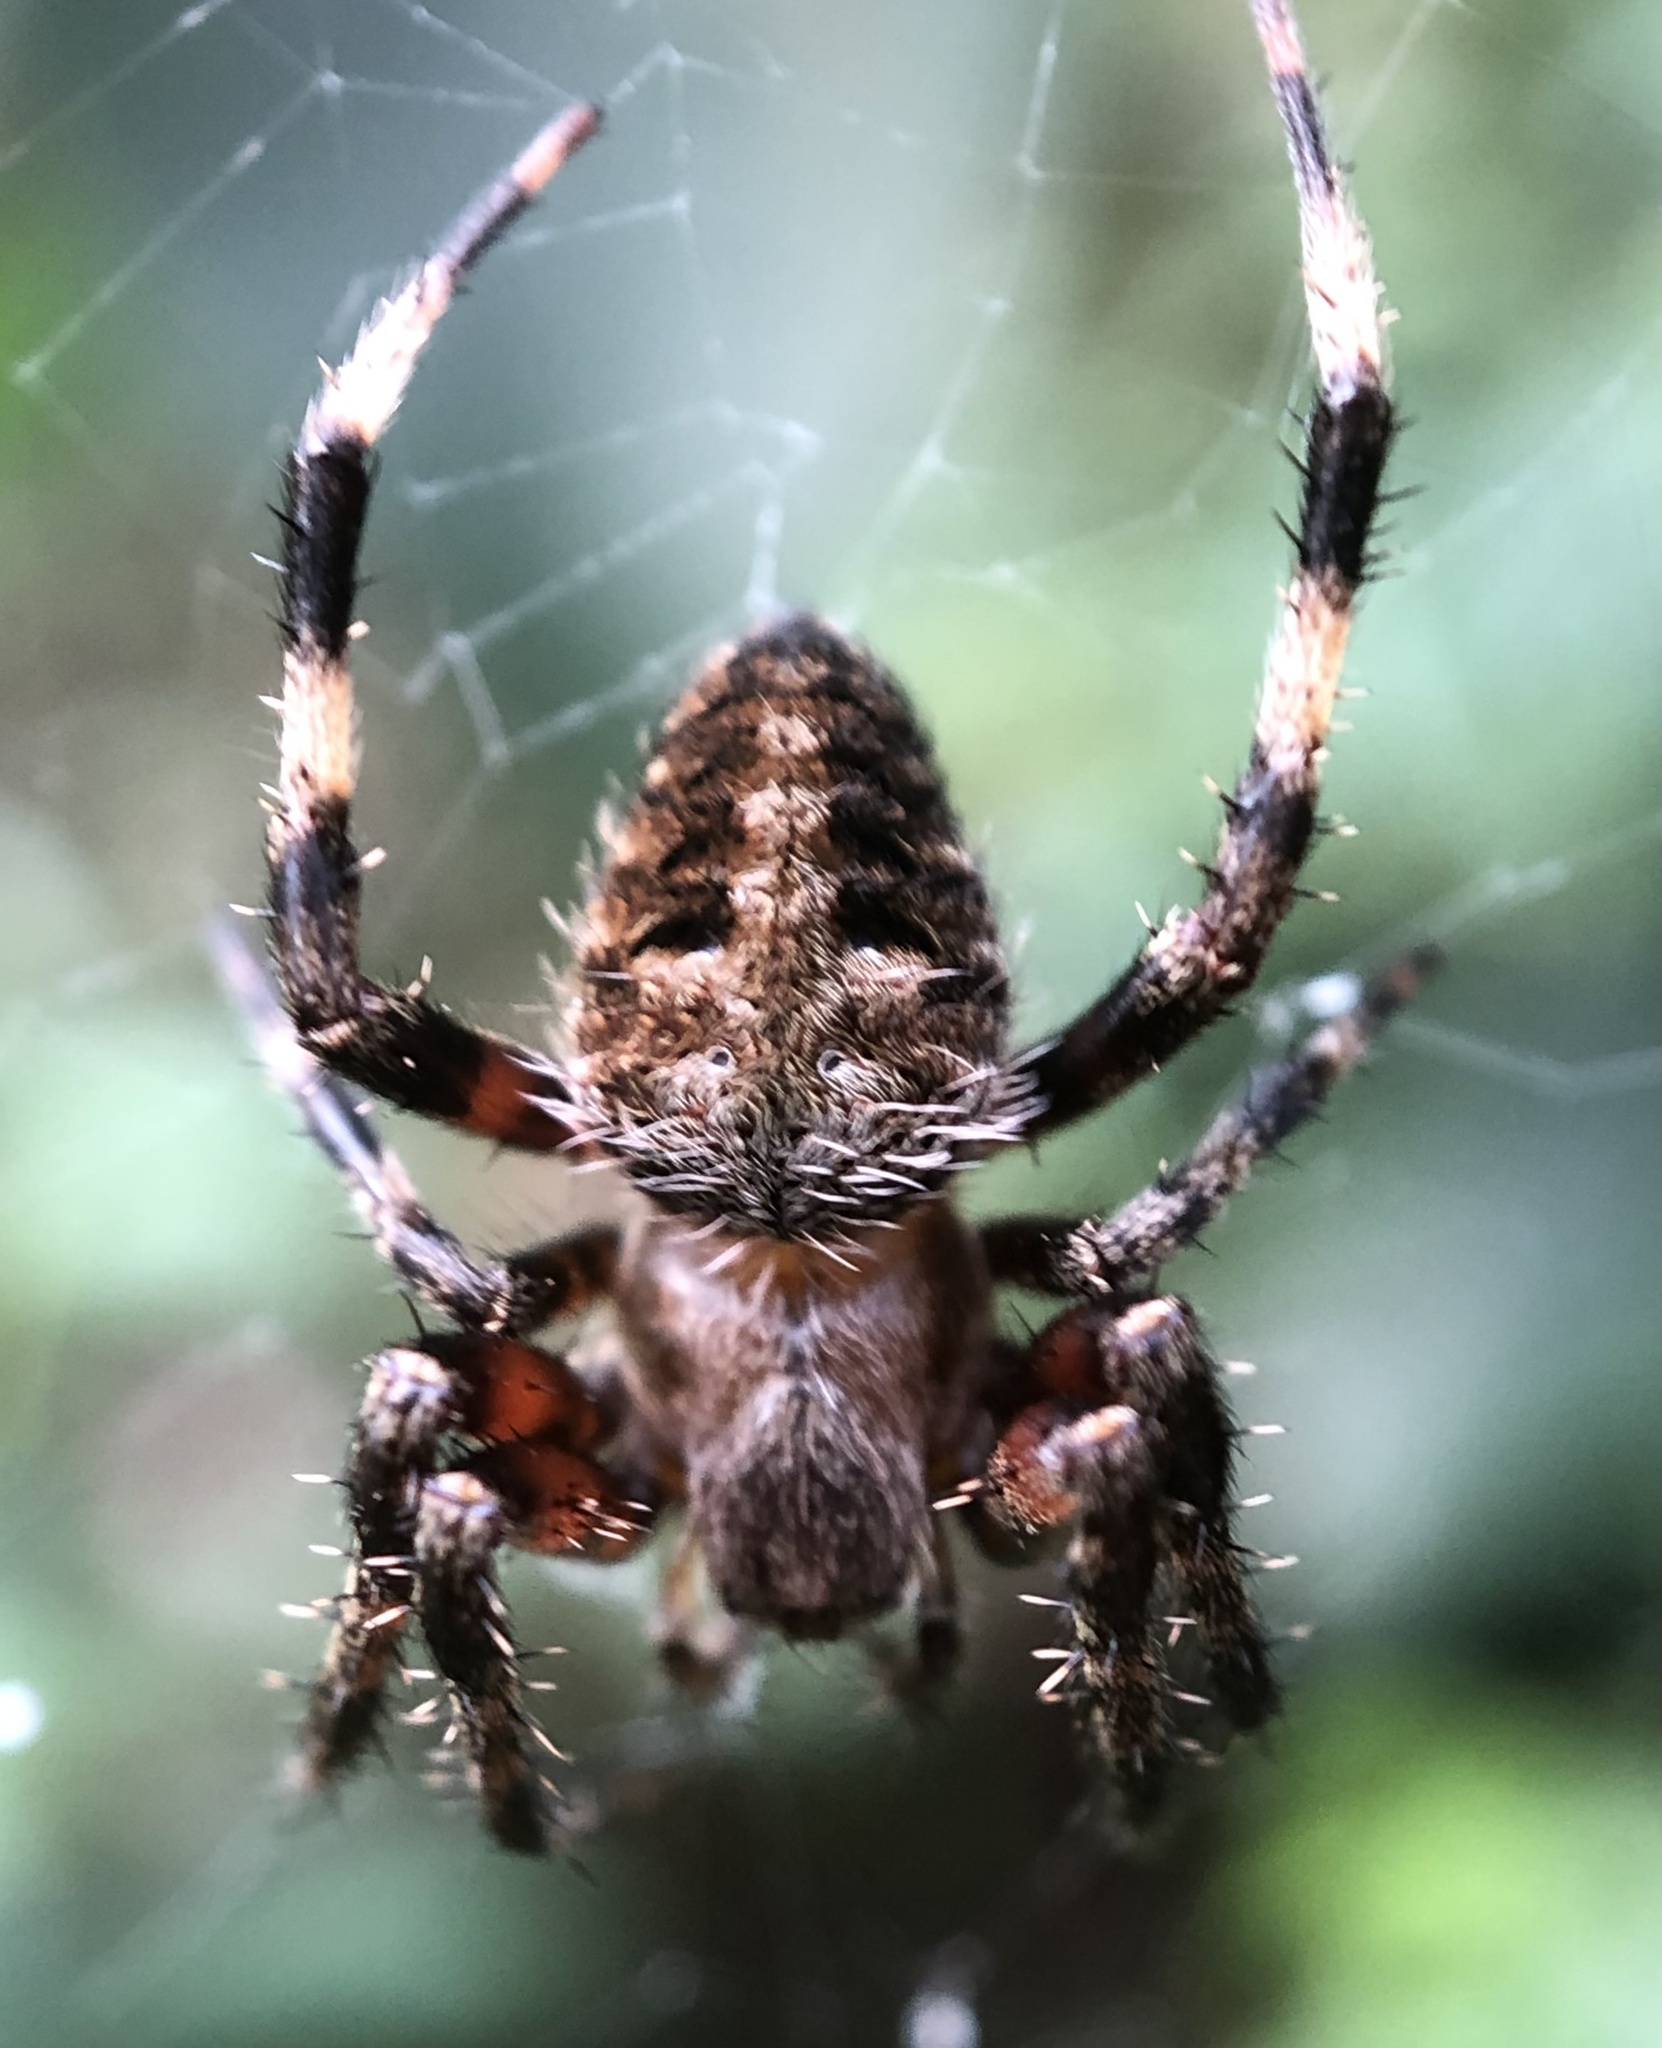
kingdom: Animalia
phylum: Arthropoda
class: Arachnida
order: Araneae
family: Araneidae
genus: Neoscona
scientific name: Neoscona domiciliorum
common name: Red-femured spotted orbweaver
